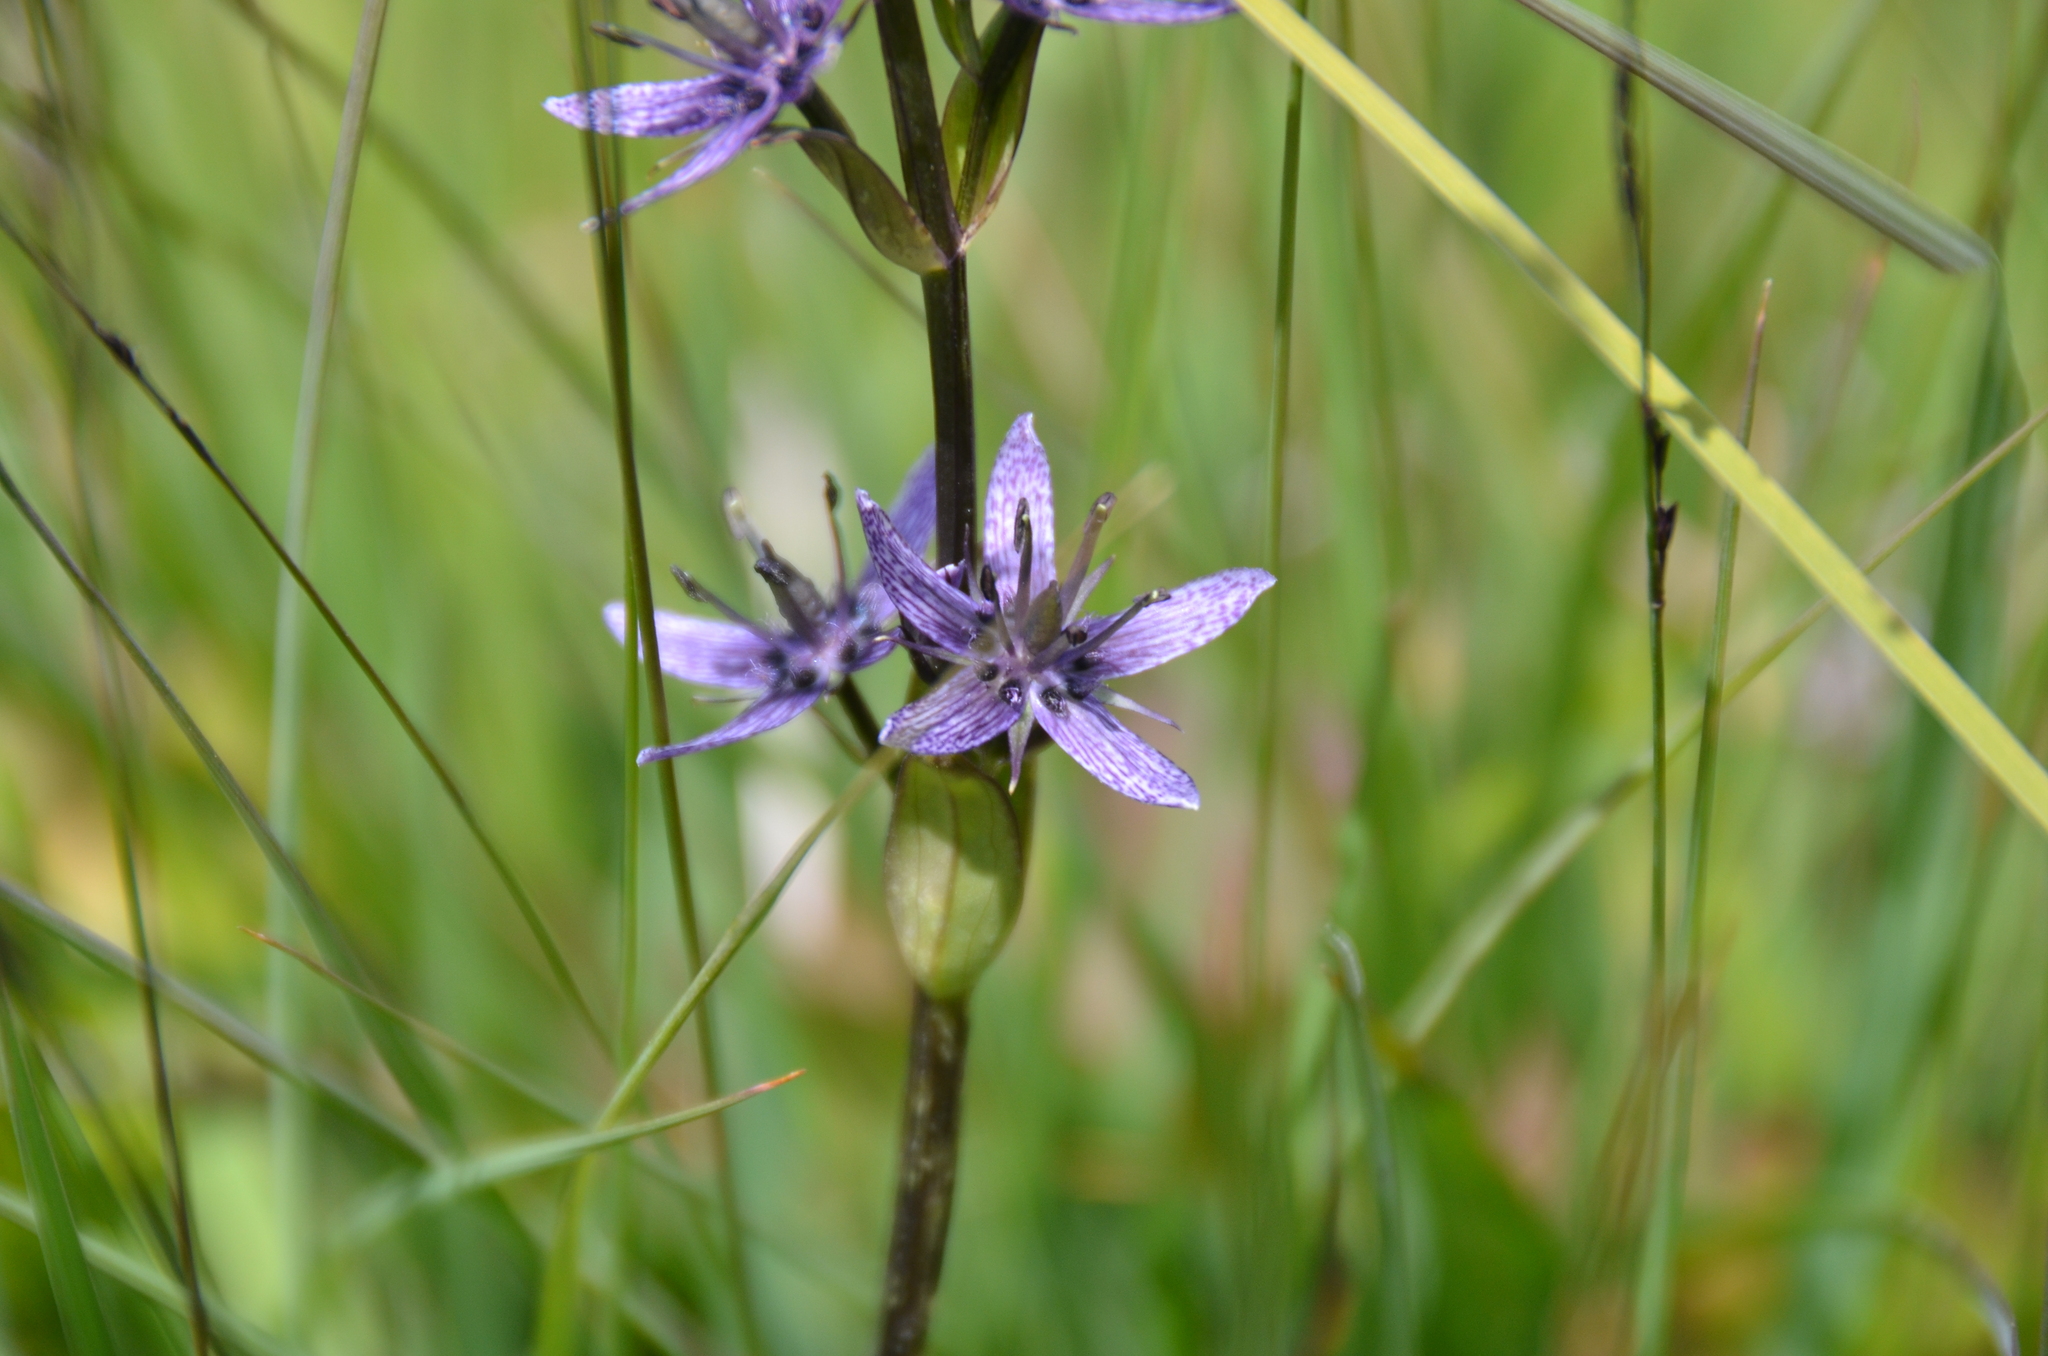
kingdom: Plantae
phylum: Tracheophyta
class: Magnoliopsida
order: Gentianales
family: Gentianaceae
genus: Swertia
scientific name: Swertia perennis
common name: Alpine bog swertia
